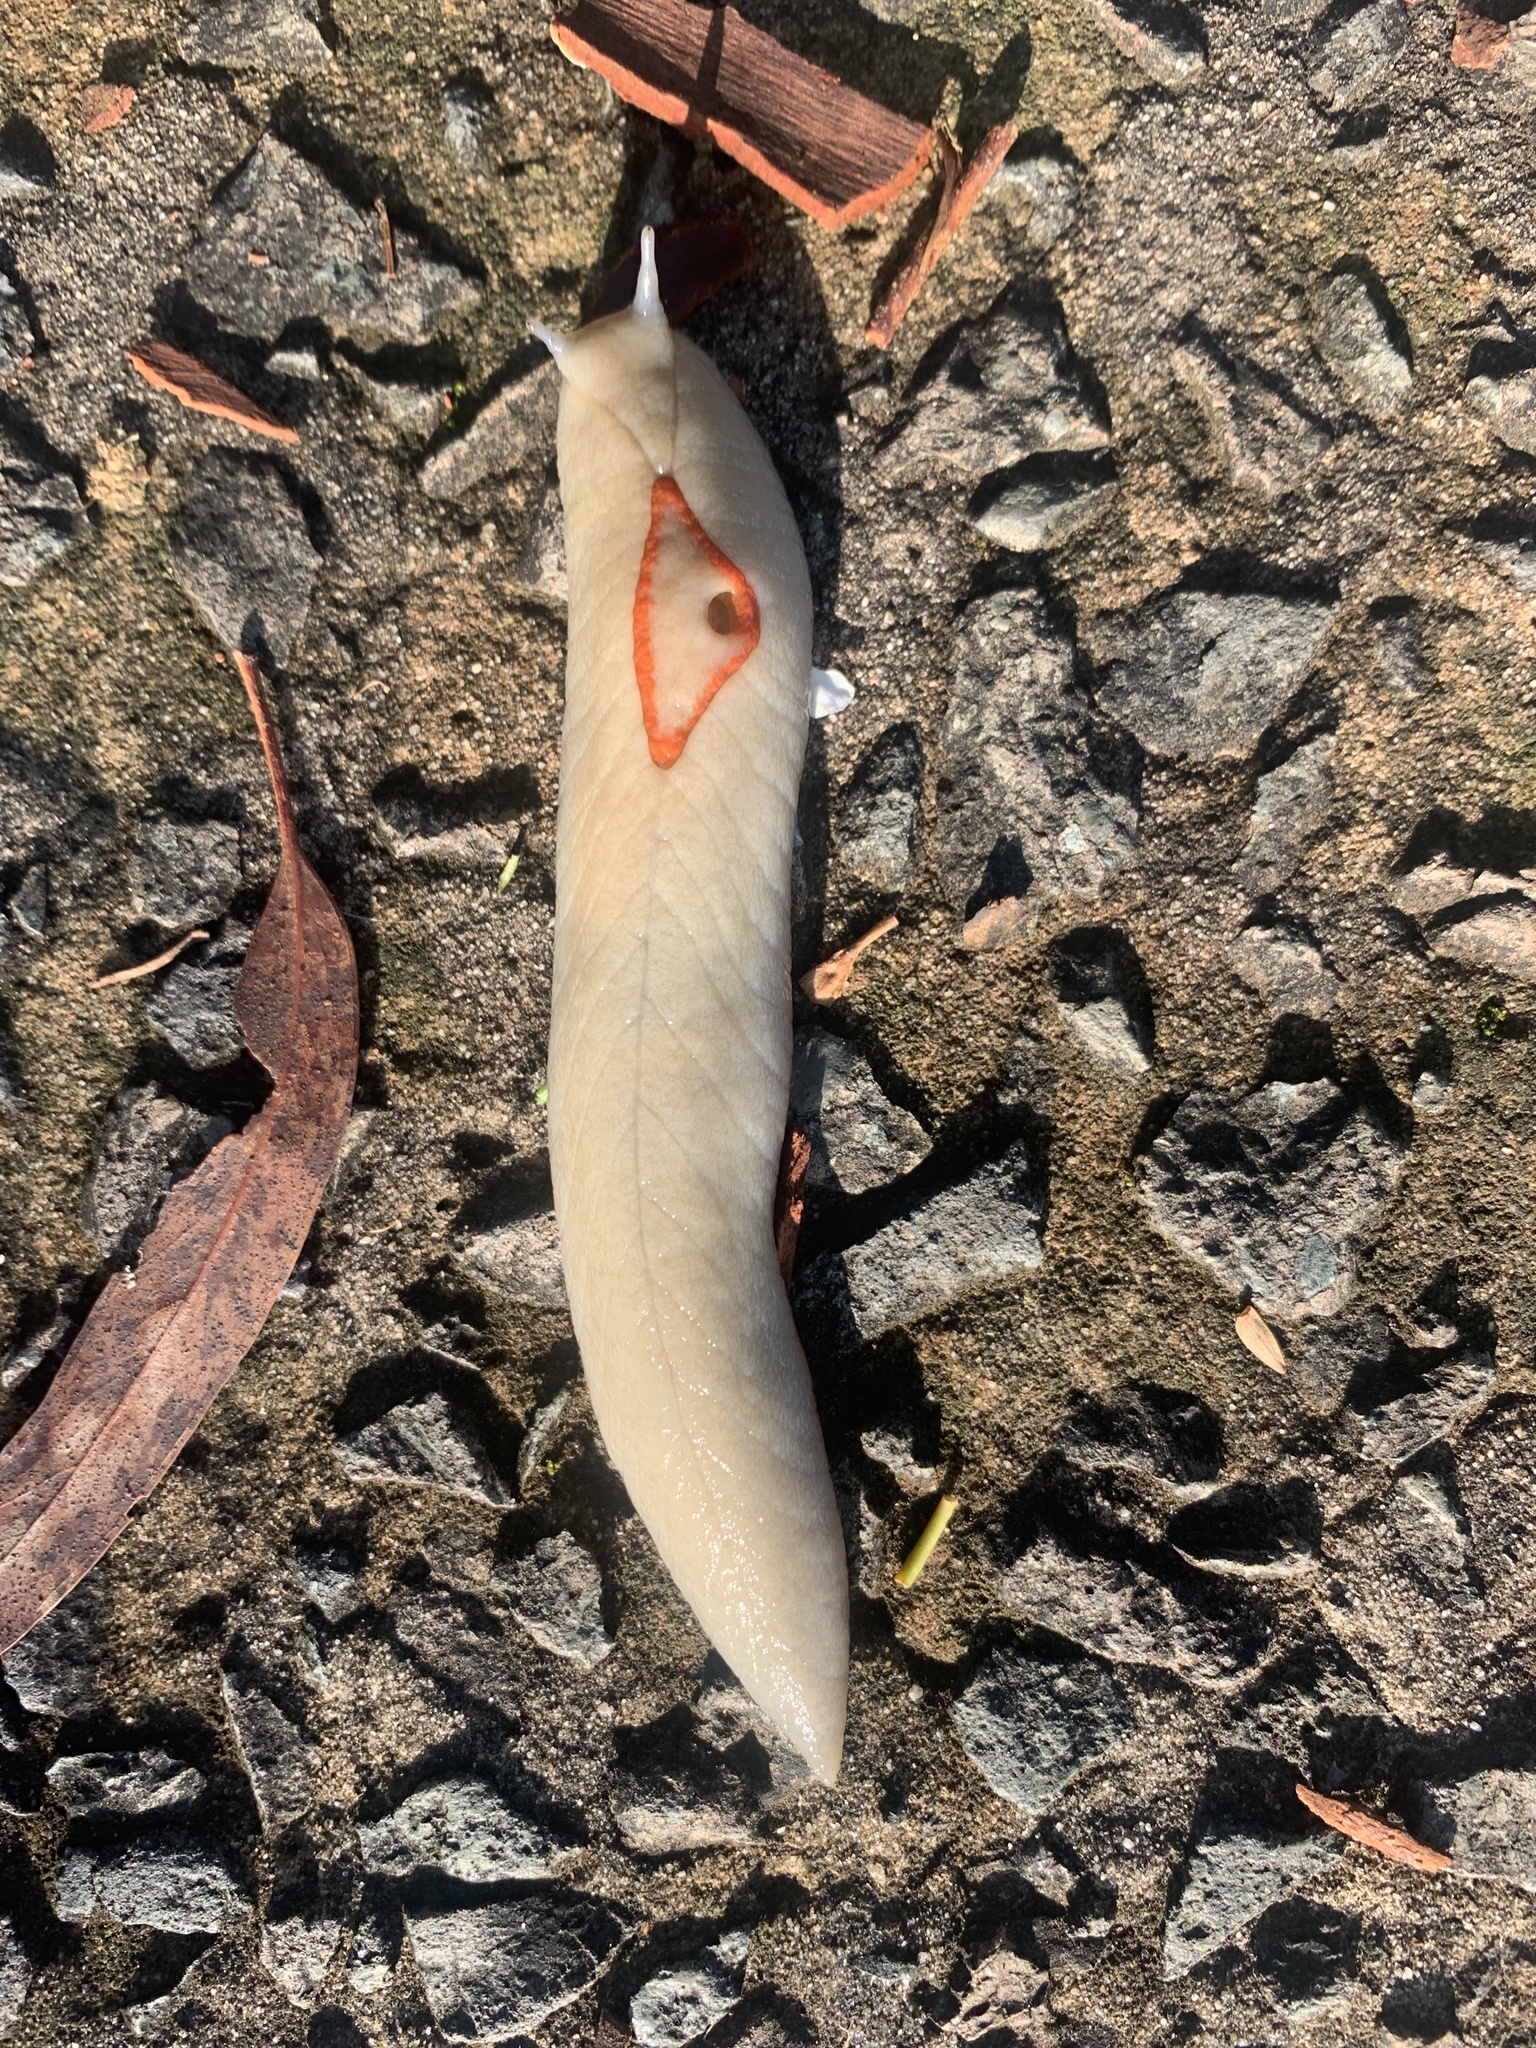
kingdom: Animalia
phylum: Mollusca
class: Gastropoda
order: Stylommatophora
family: Athoracophoridae
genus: Triboniophorus
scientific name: Triboniophorus graeffei
